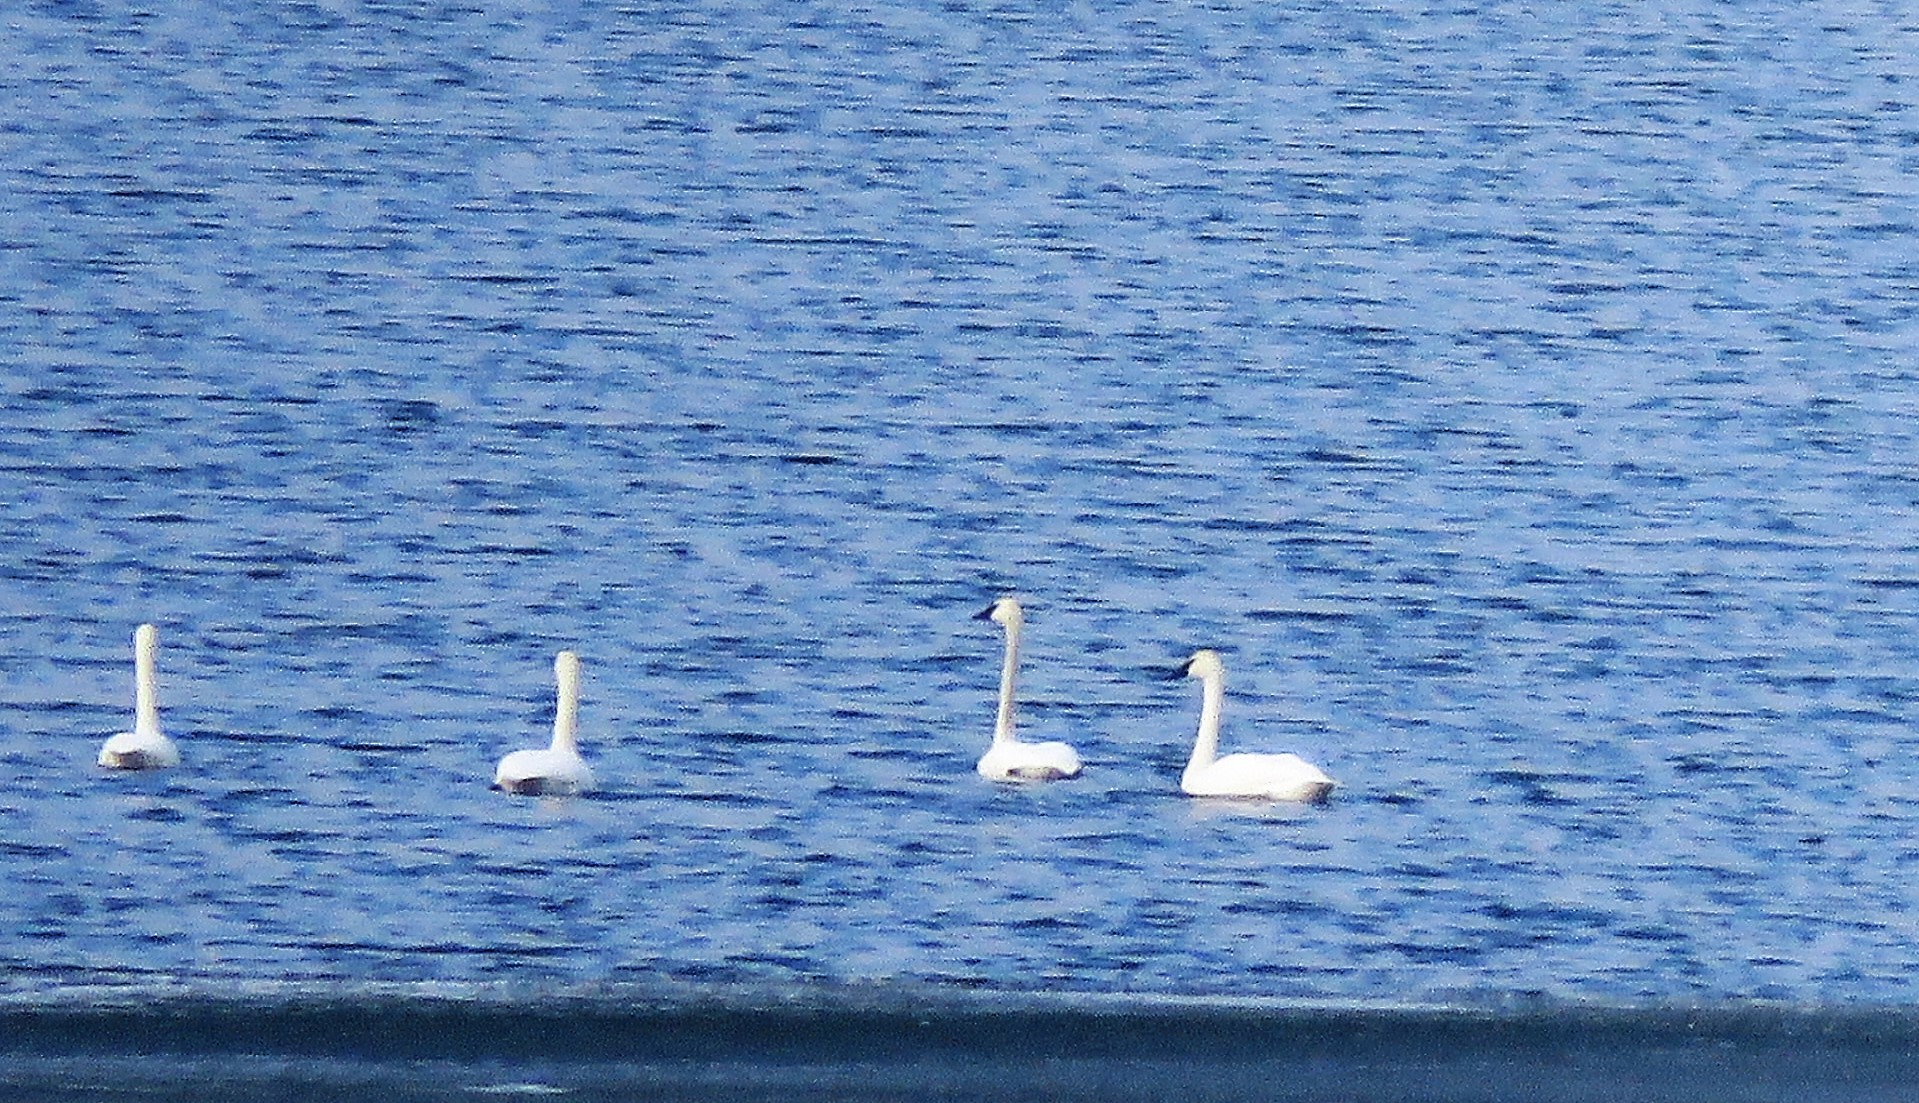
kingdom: Animalia
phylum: Chordata
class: Aves
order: Anseriformes
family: Anatidae
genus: Cygnus
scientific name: Cygnus buccinator
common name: Trumpeter swan
